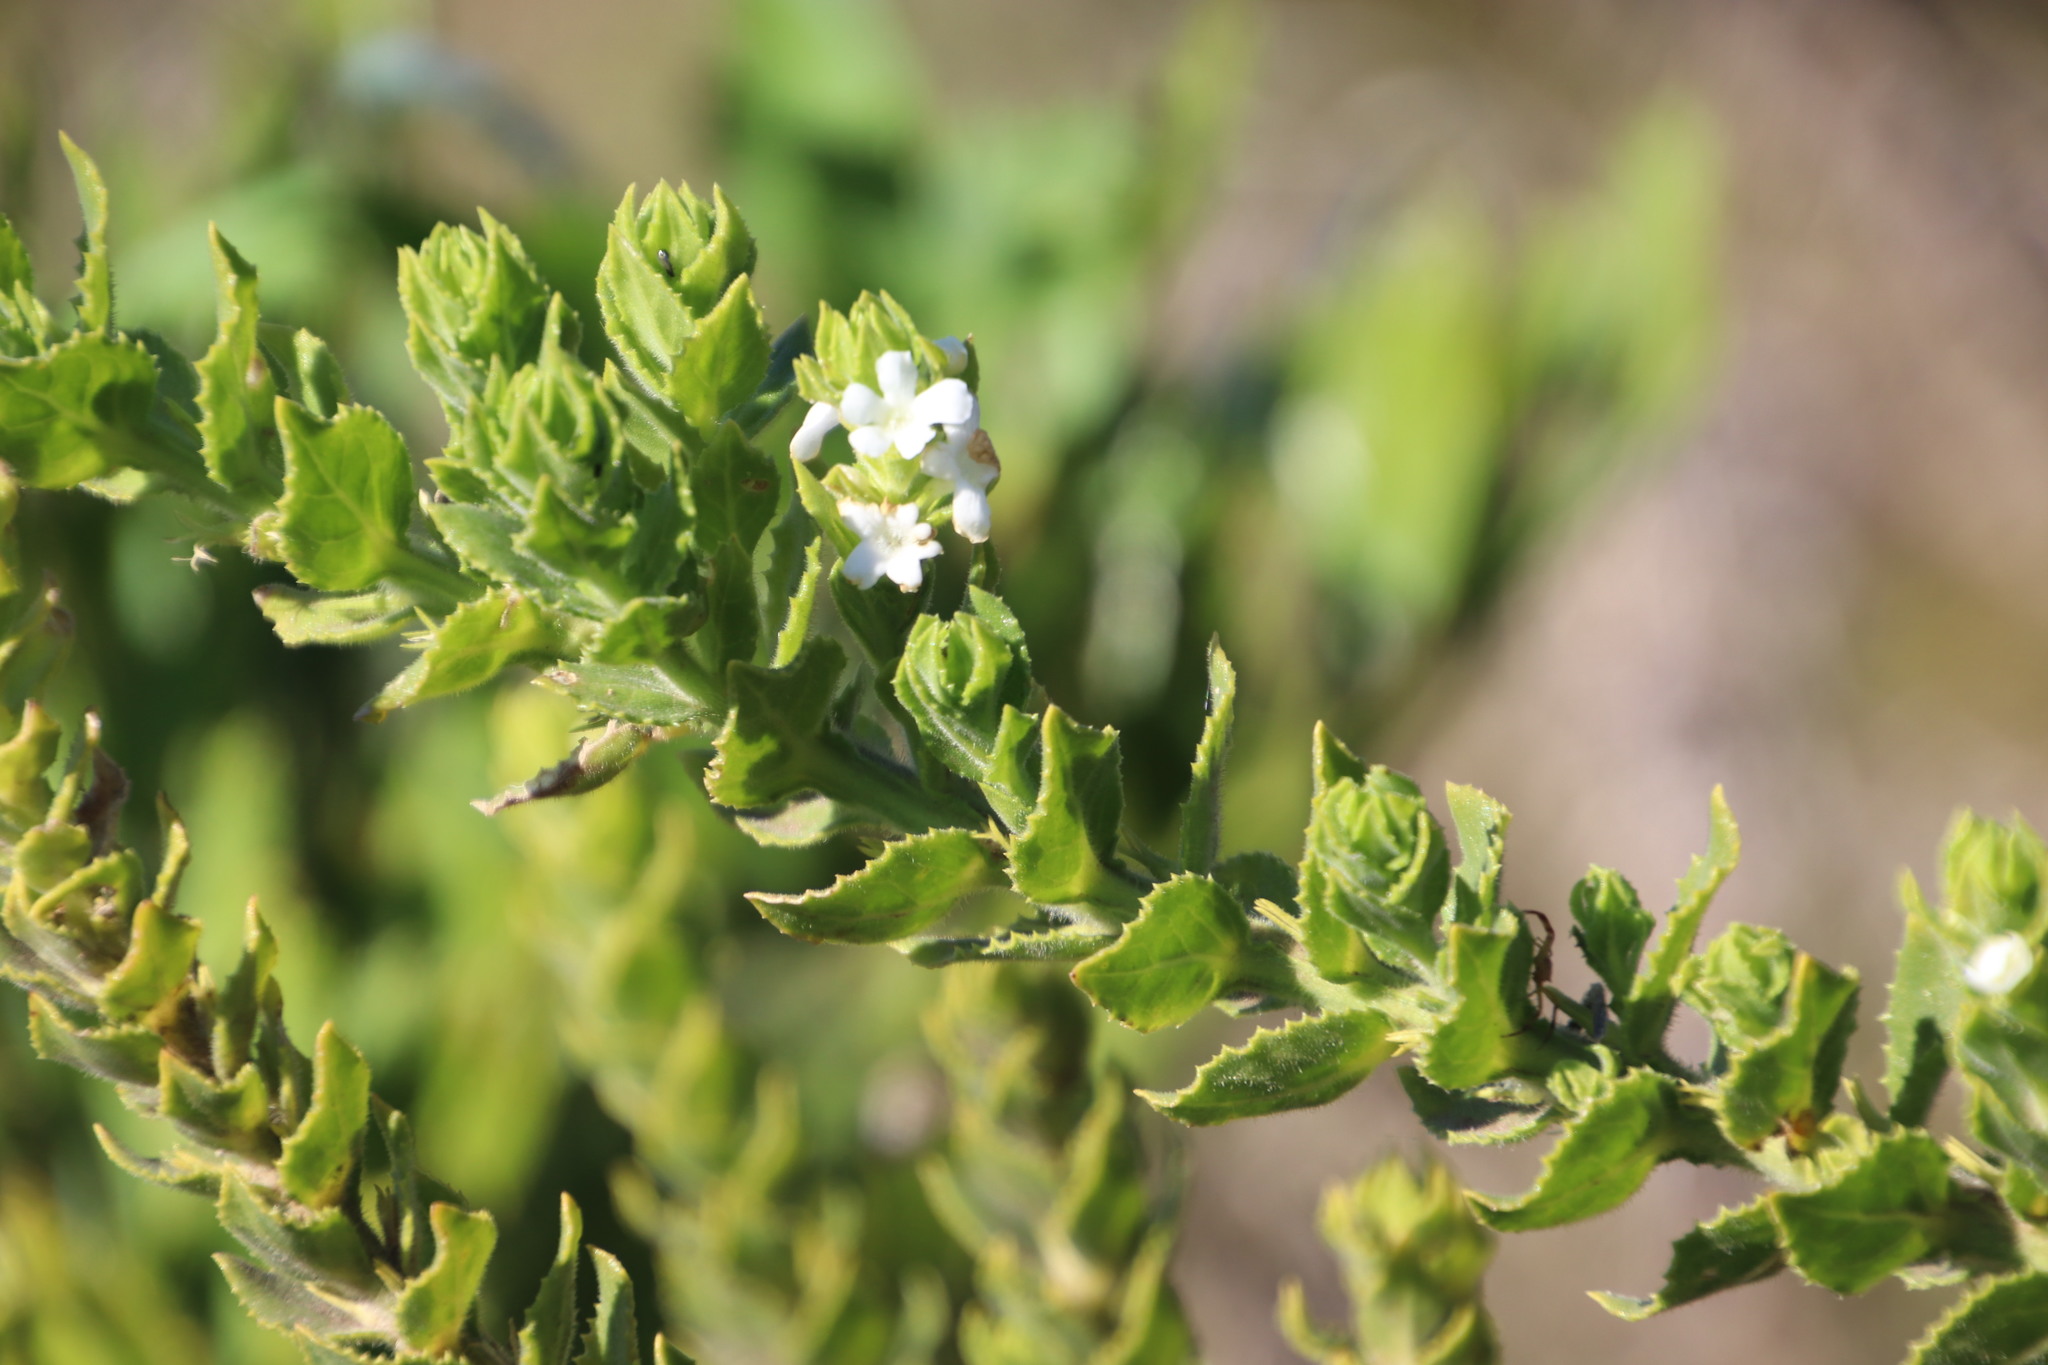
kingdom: Plantae
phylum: Tracheophyta
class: Magnoliopsida
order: Lamiales
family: Scrophulariaceae
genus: Oftia
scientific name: Oftia africana
